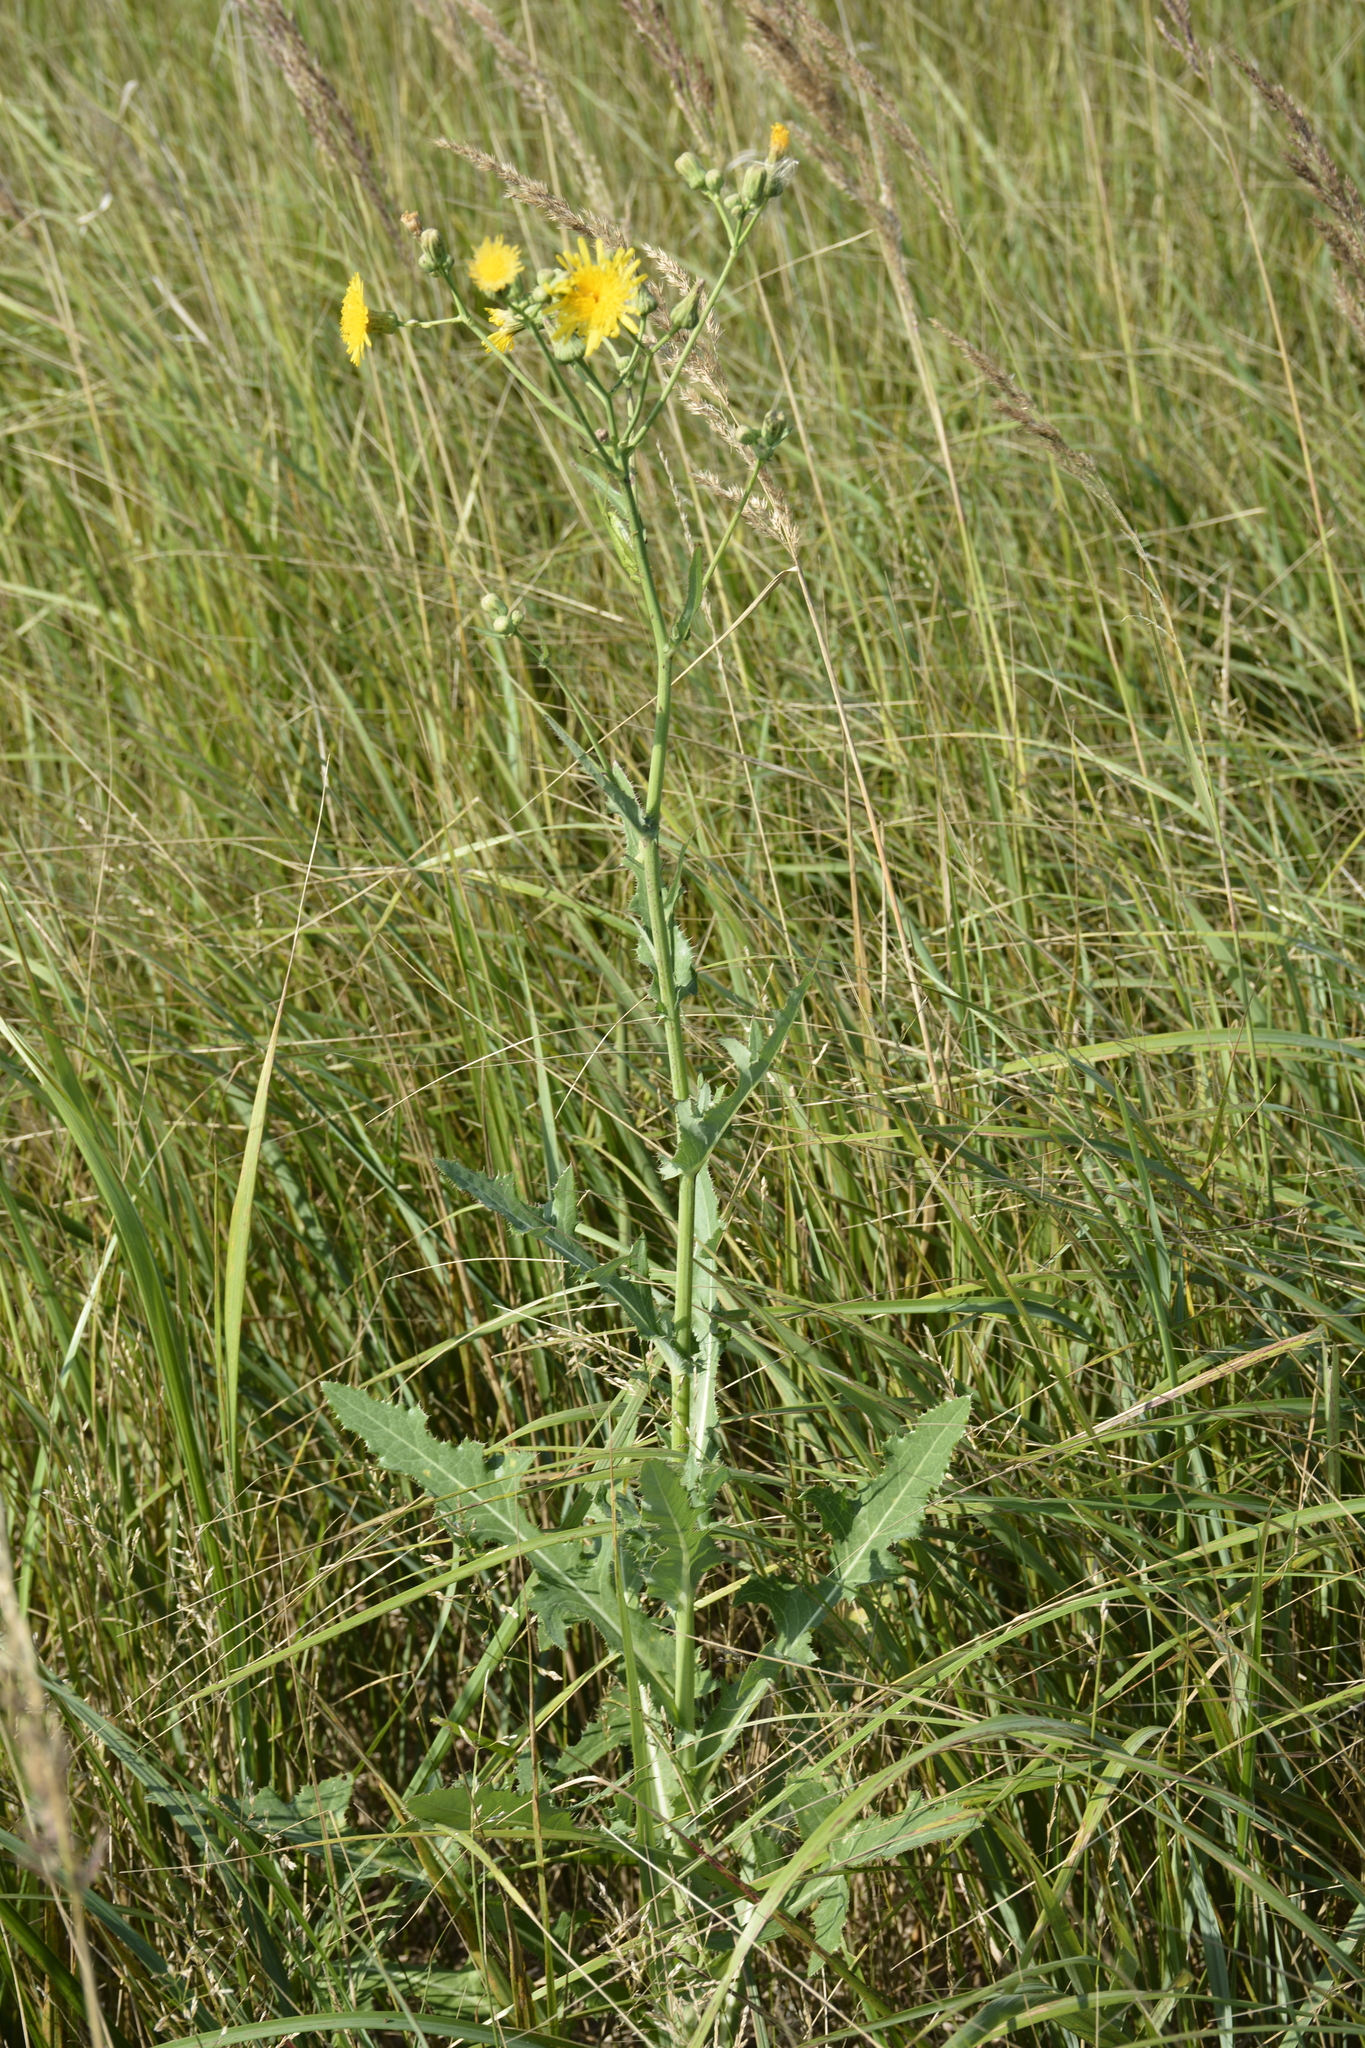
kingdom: Plantae
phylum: Tracheophyta
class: Magnoliopsida
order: Asterales
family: Asteraceae
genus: Sonchus
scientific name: Sonchus arvensis
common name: Perennial sow-thistle
